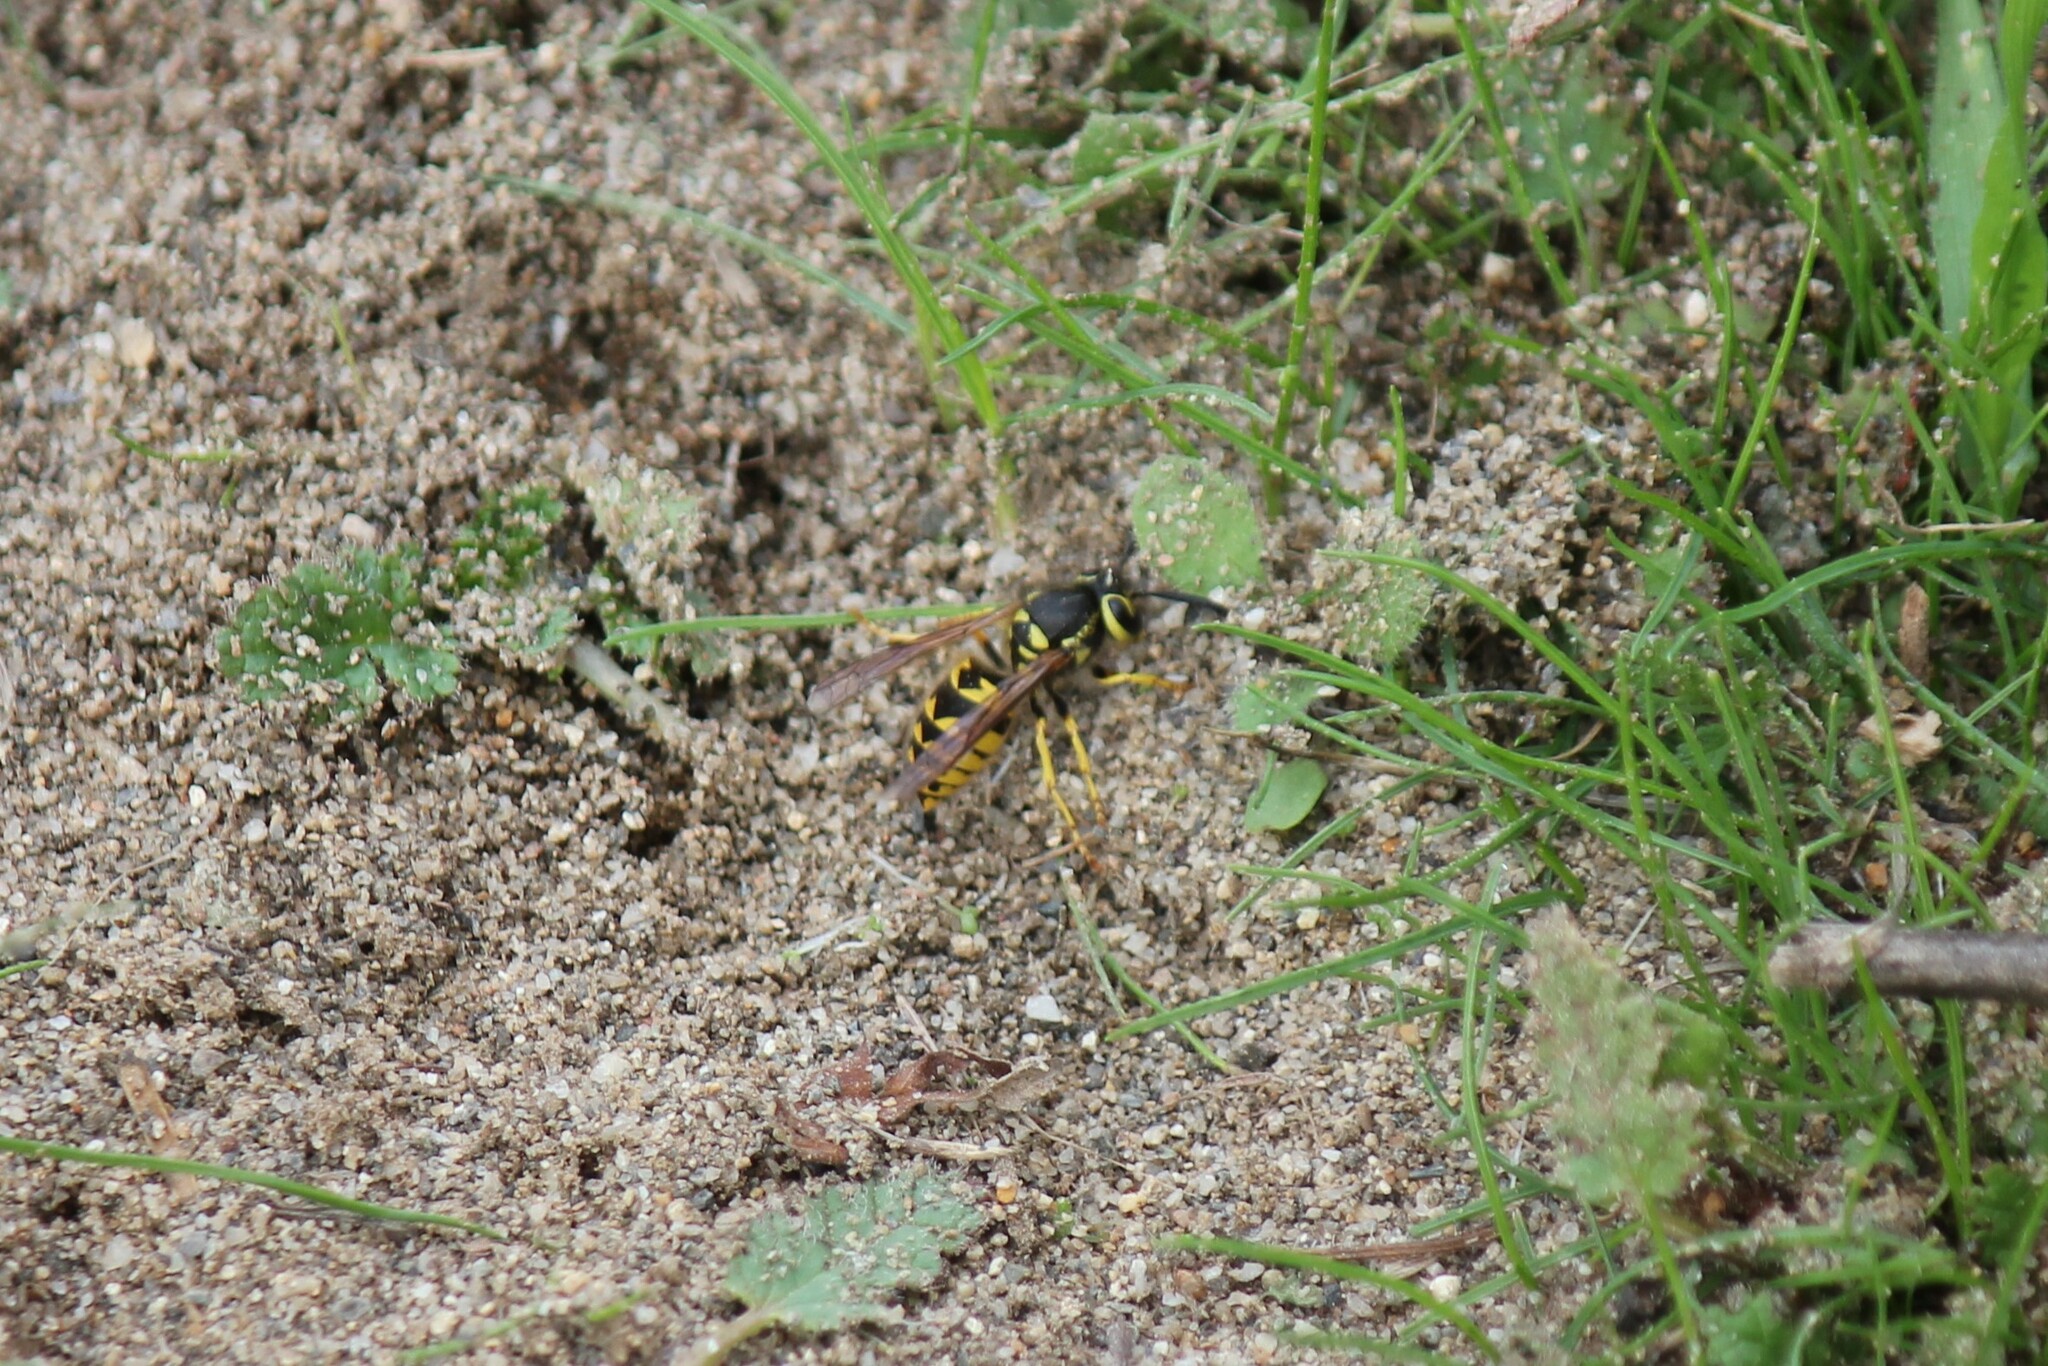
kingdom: Animalia
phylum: Arthropoda
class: Insecta
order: Hymenoptera
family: Vespidae
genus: Vespula
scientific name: Vespula pensylvanica
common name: Western yellowjacket
